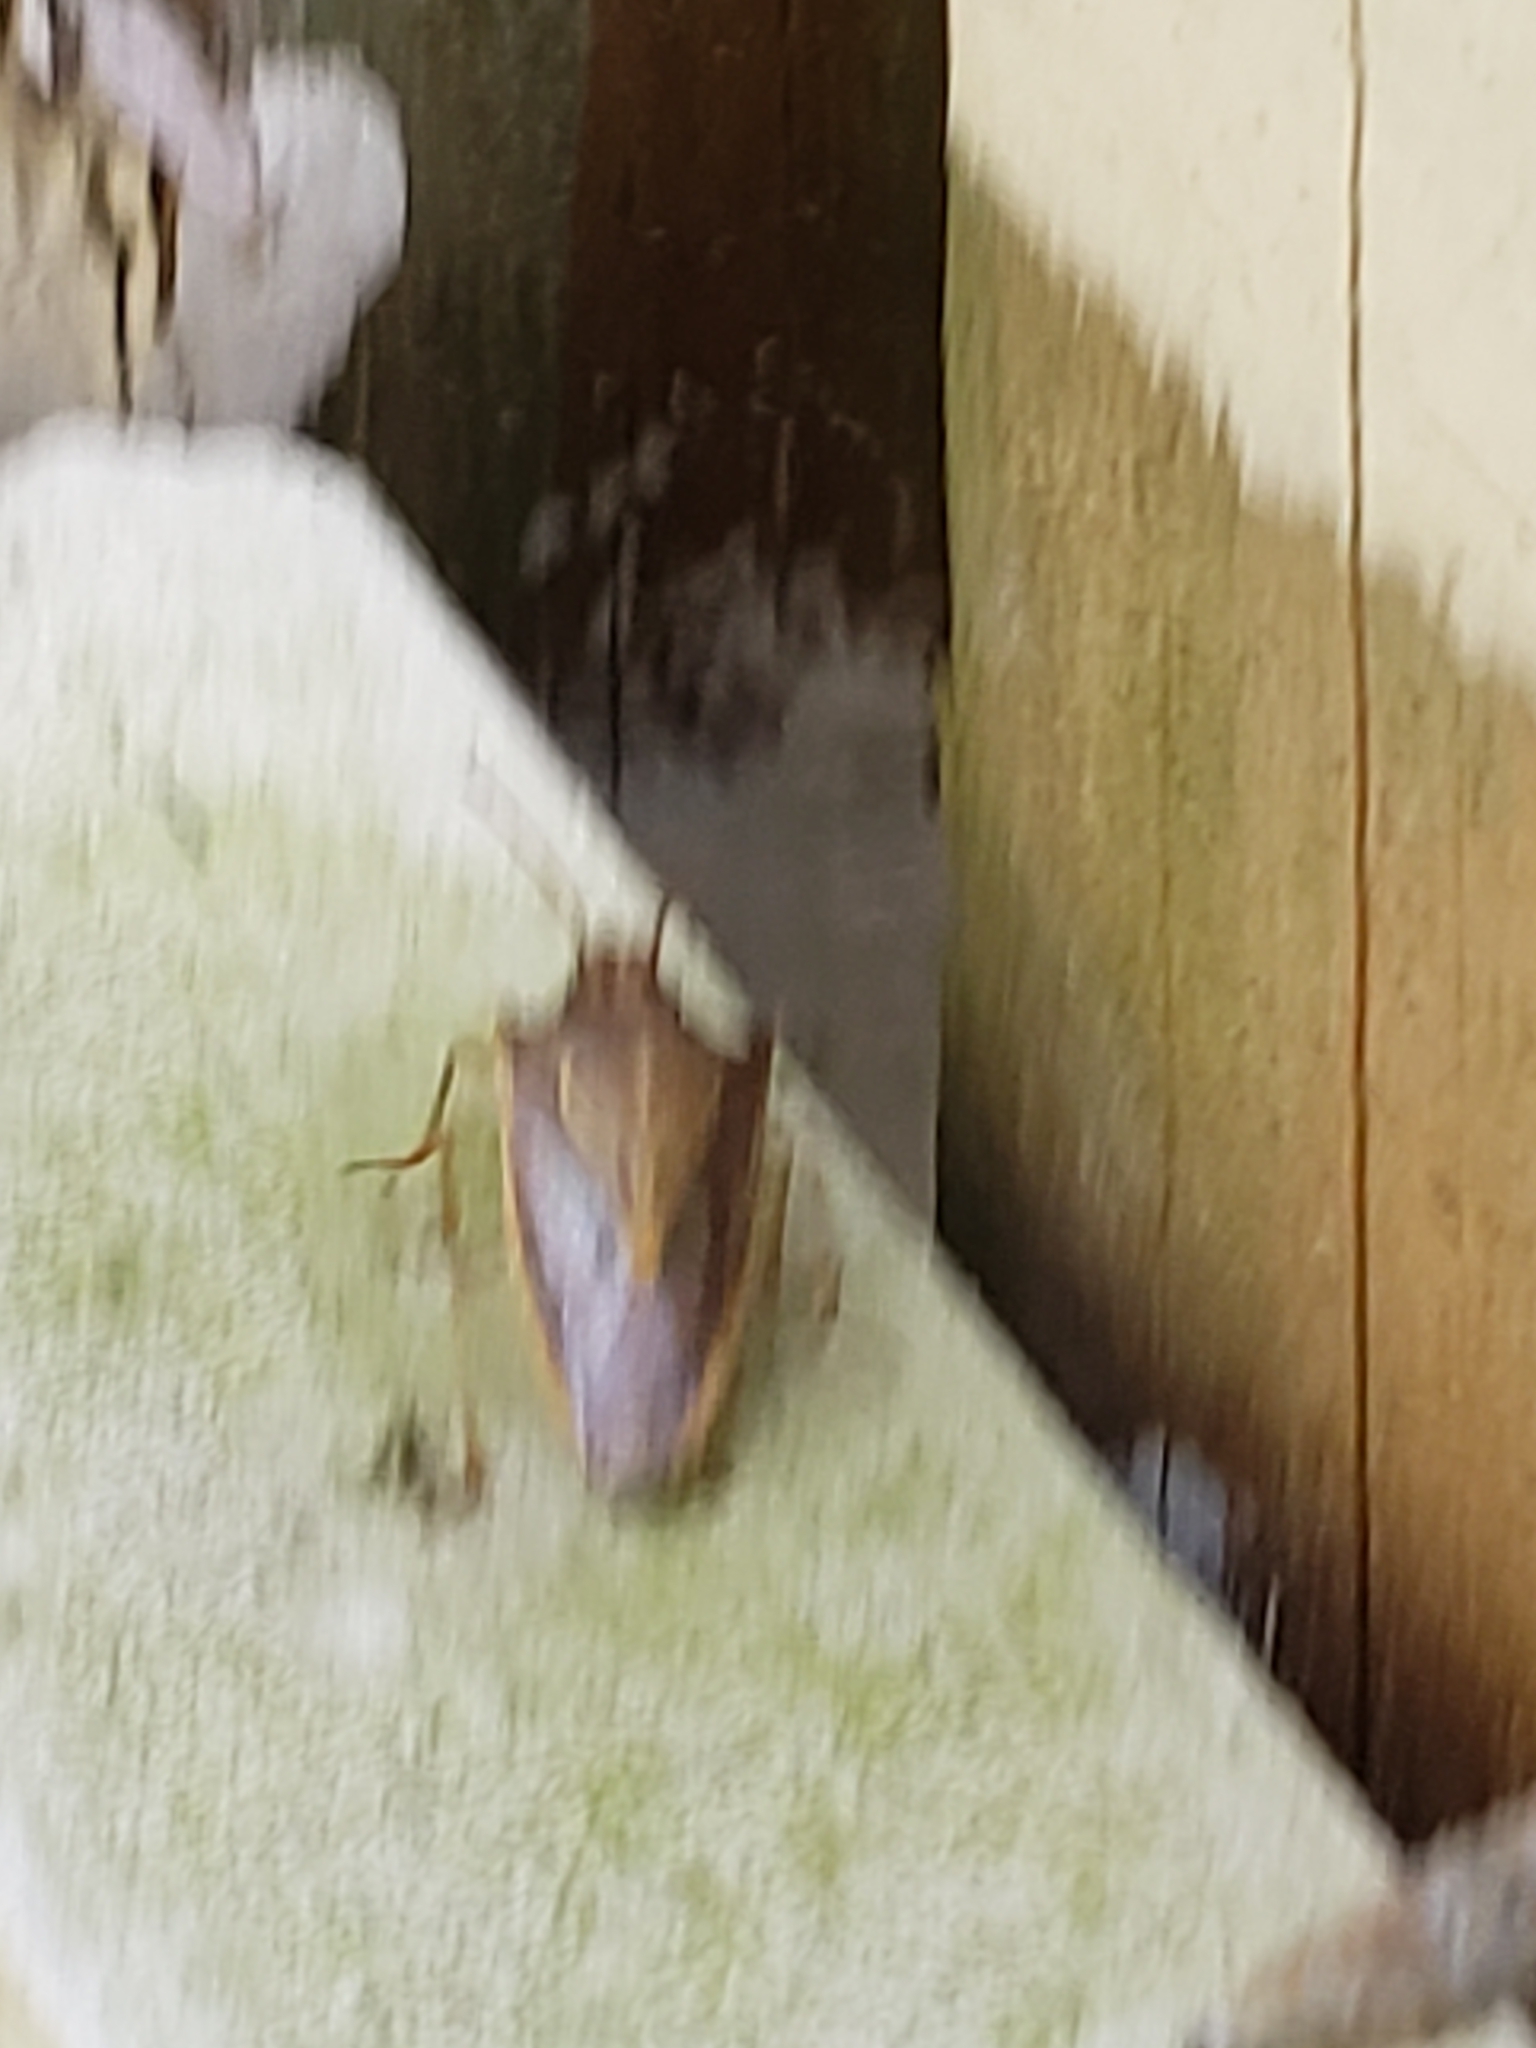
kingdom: Animalia
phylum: Arthropoda
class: Insecta
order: Hemiptera
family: Pentatomidae
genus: Oebalus
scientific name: Oebalus pugnax
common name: Rice stink bug
